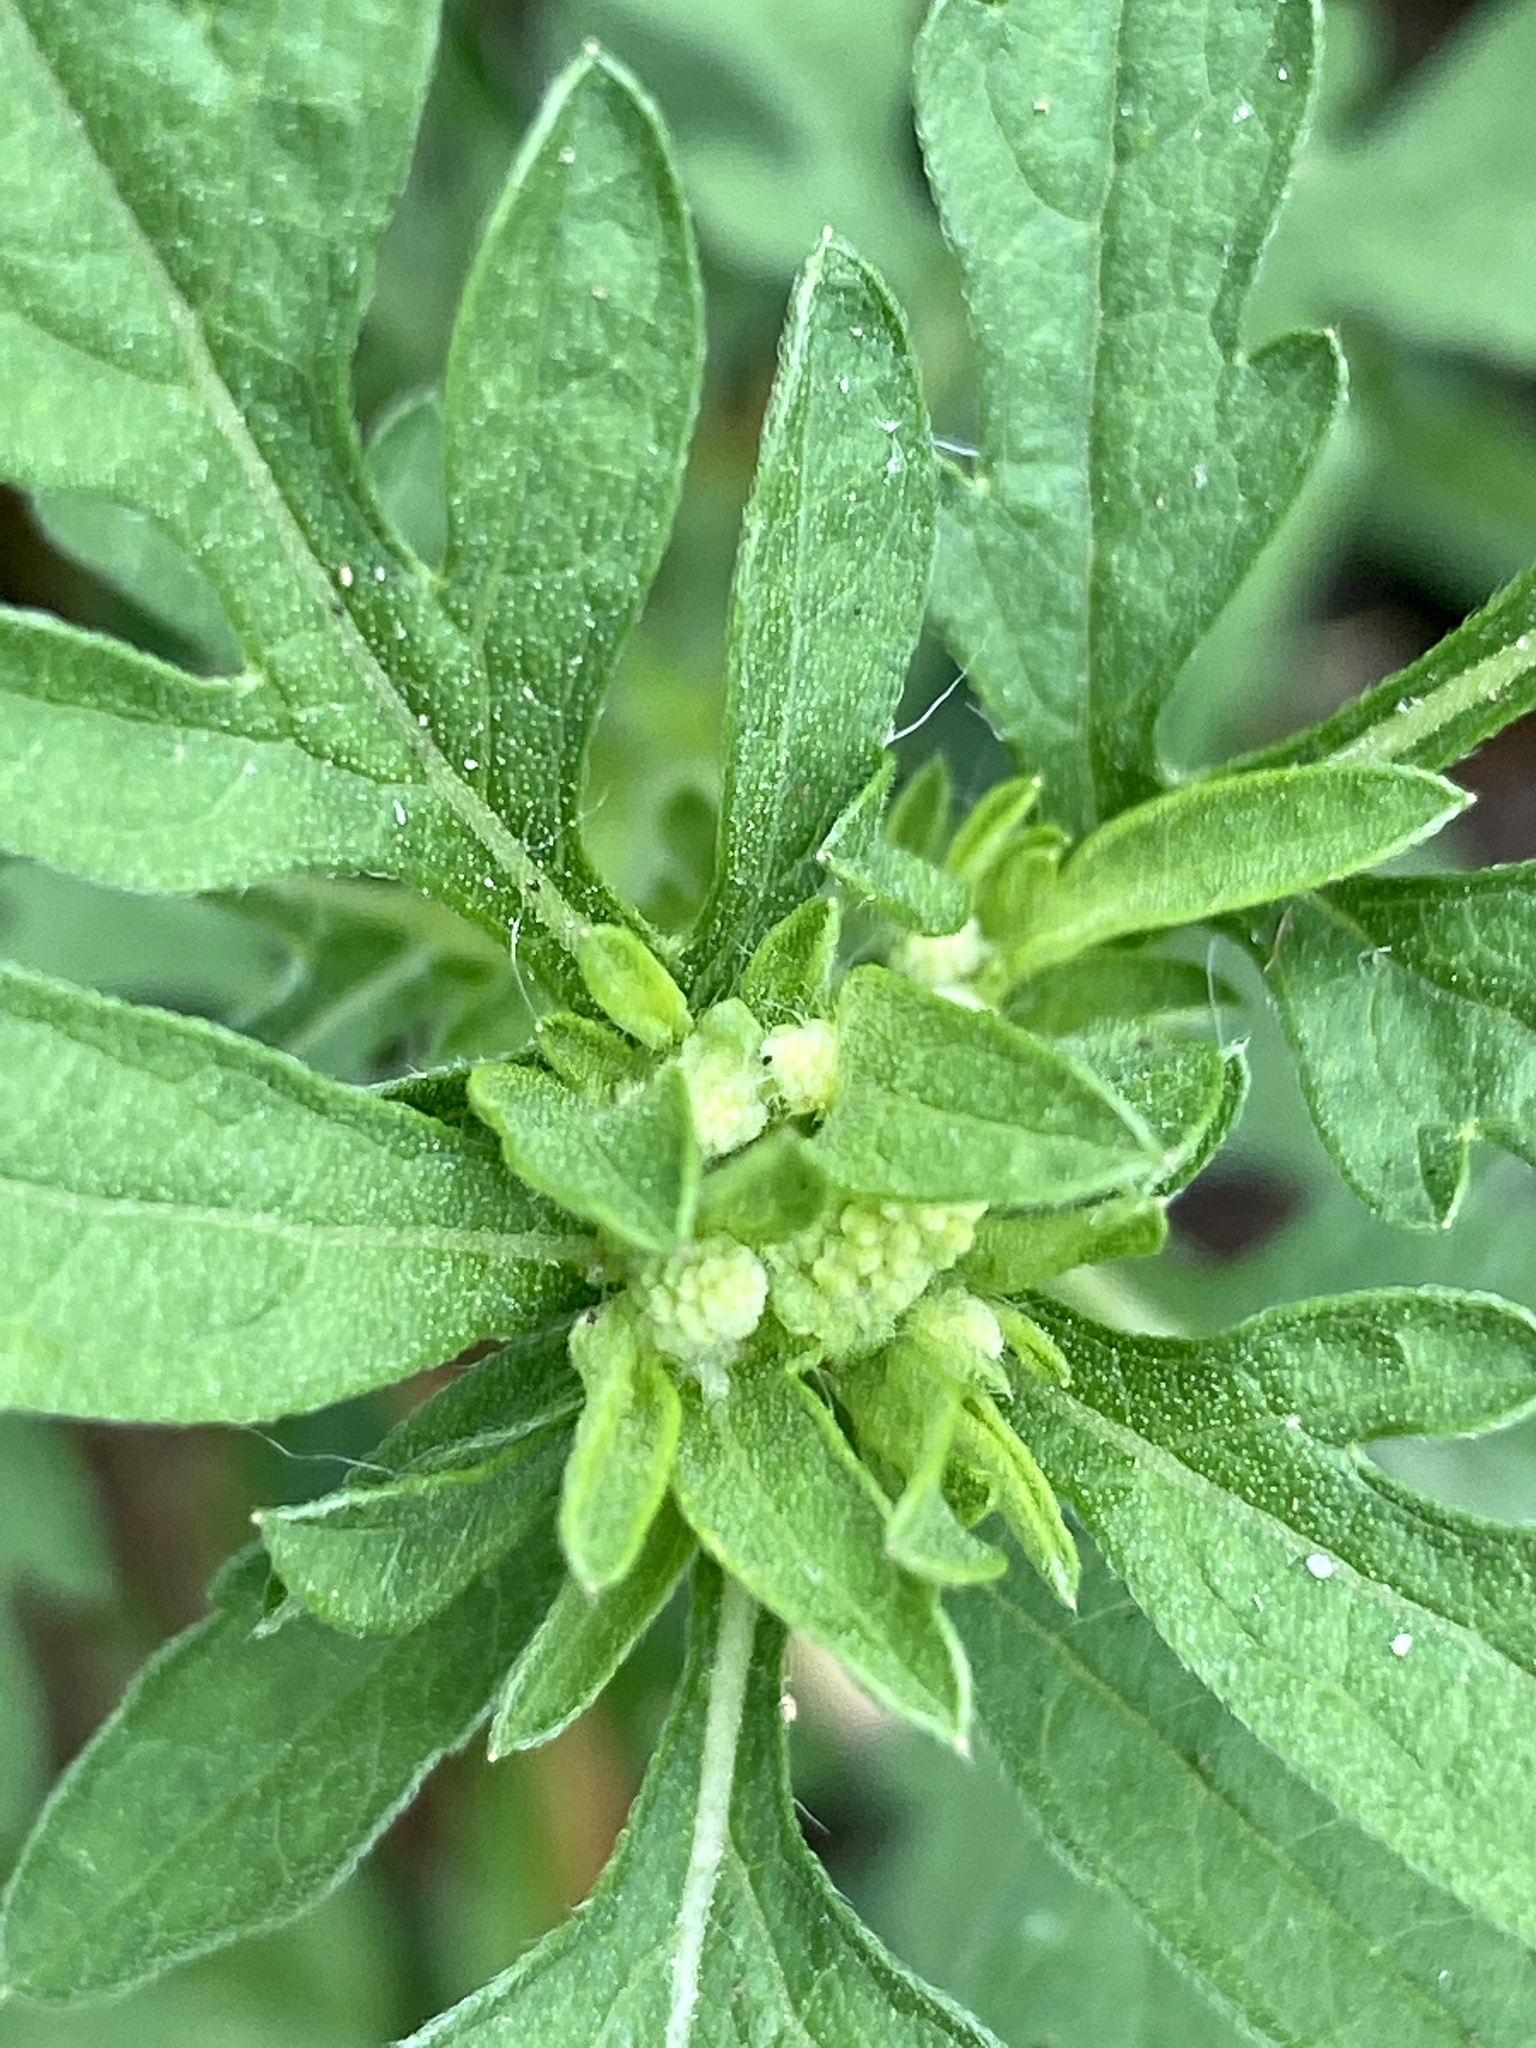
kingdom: Plantae
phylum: Tracheophyta
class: Magnoliopsida
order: Asterales
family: Asteraceae
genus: Ambrosia
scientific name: Ambrosia artemisiifolia
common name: Annual ragweed
